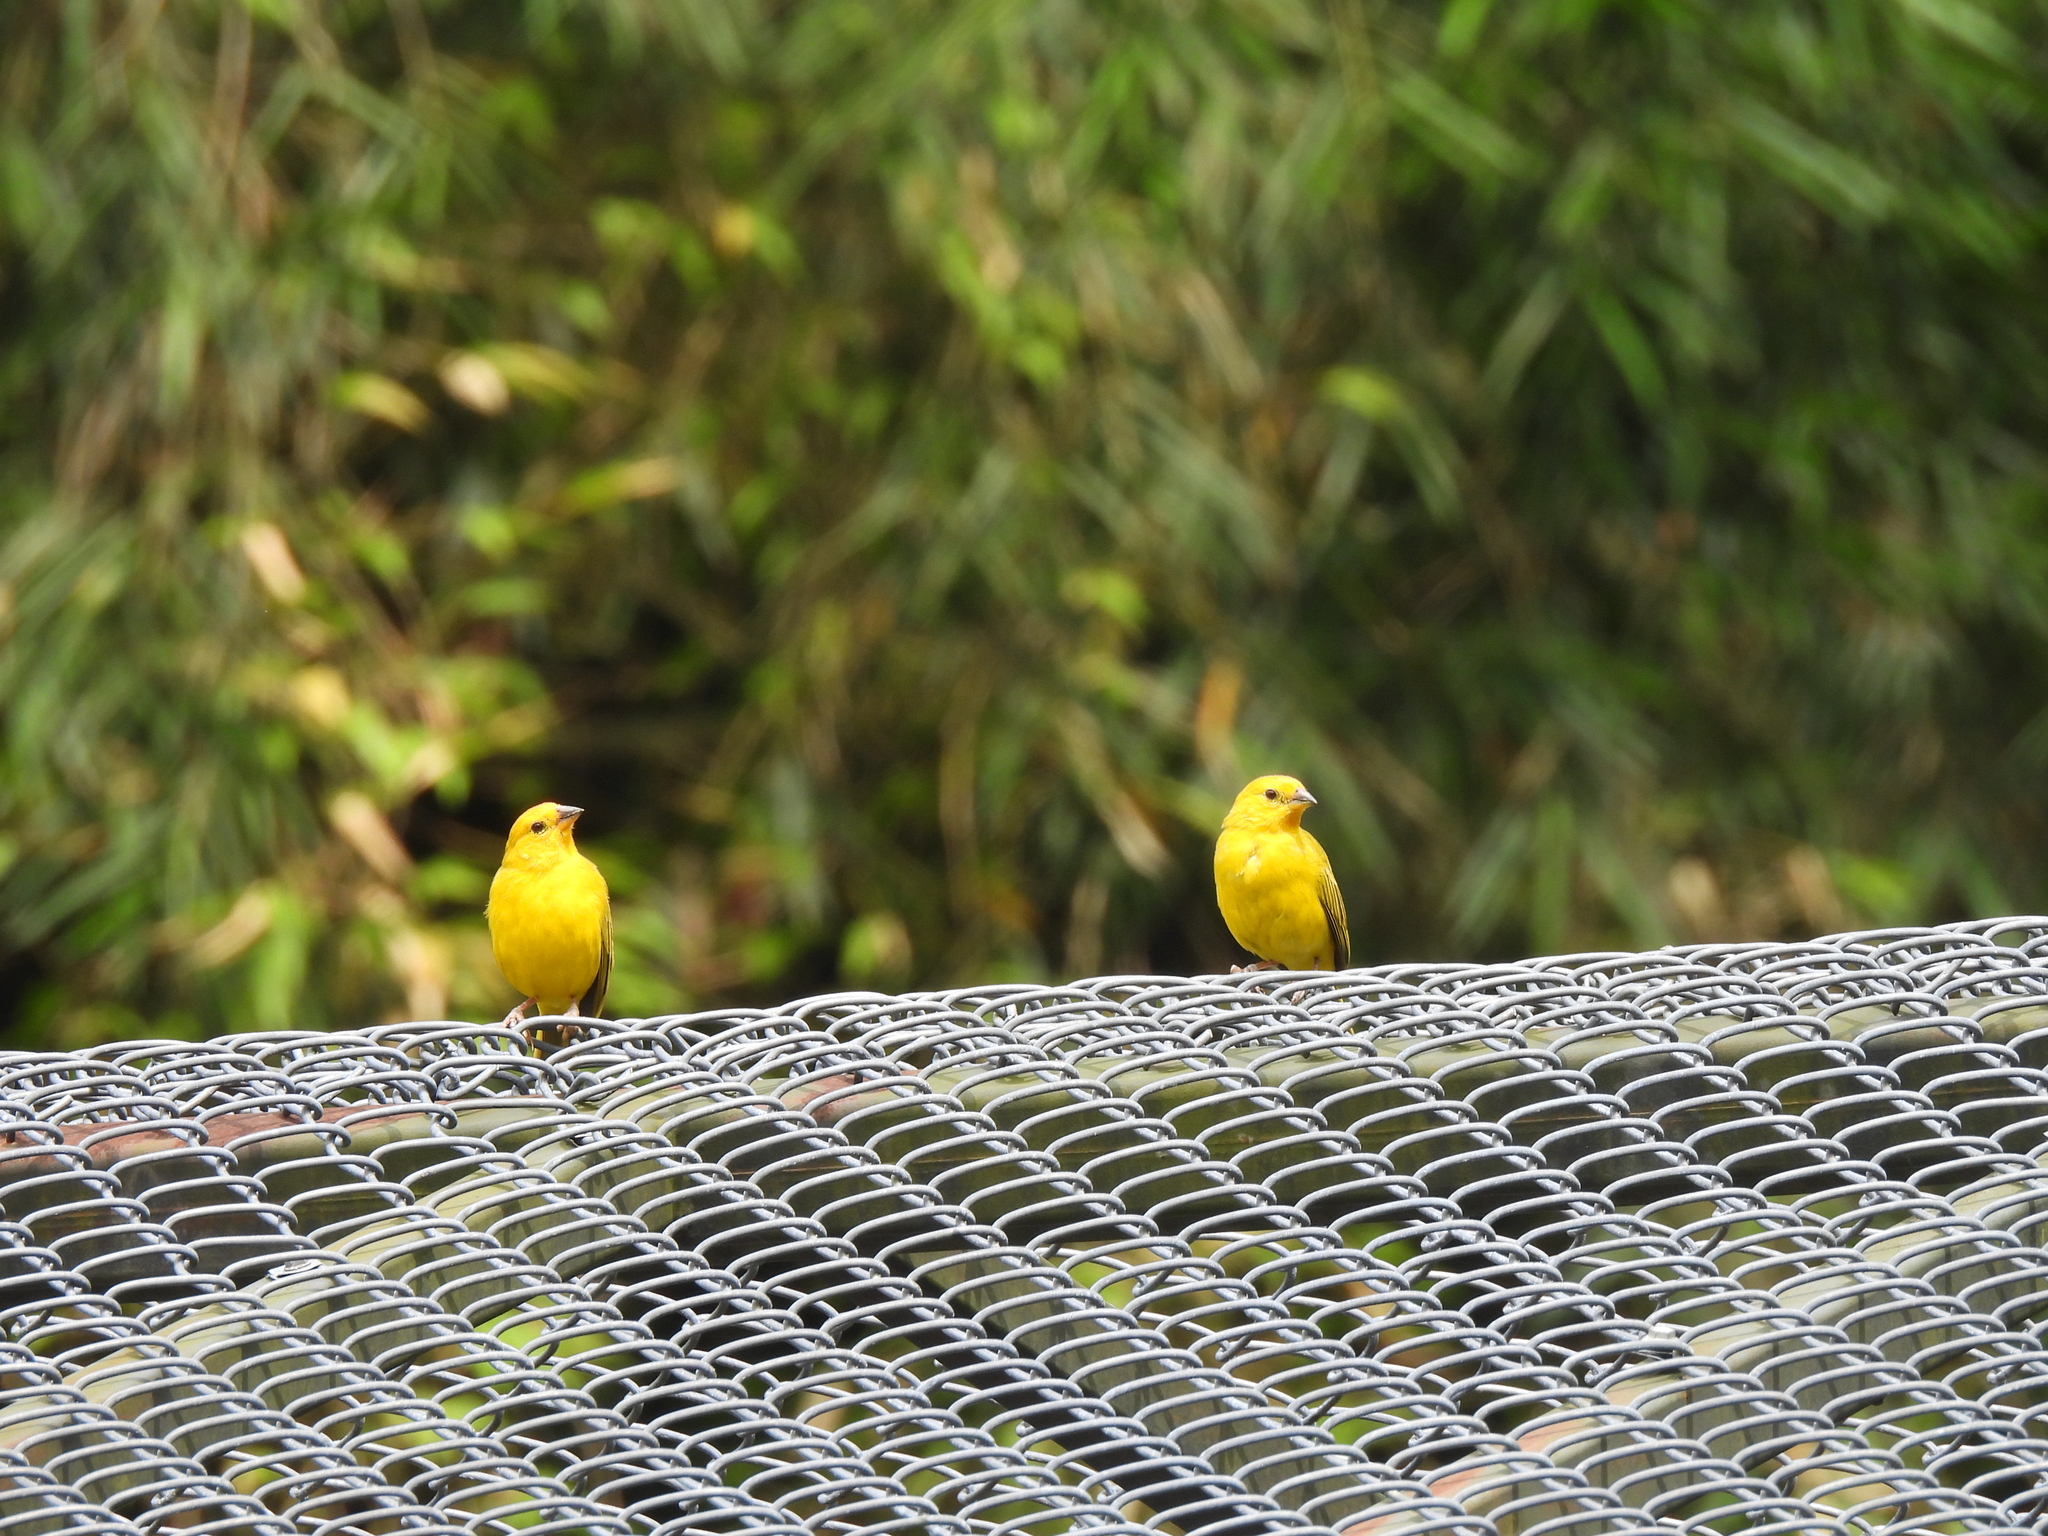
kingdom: Animalia
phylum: Chordata
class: Aves
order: Passeriformes
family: Thraupidae
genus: Sicalis
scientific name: Sicalis flaveola
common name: Saffron finch
